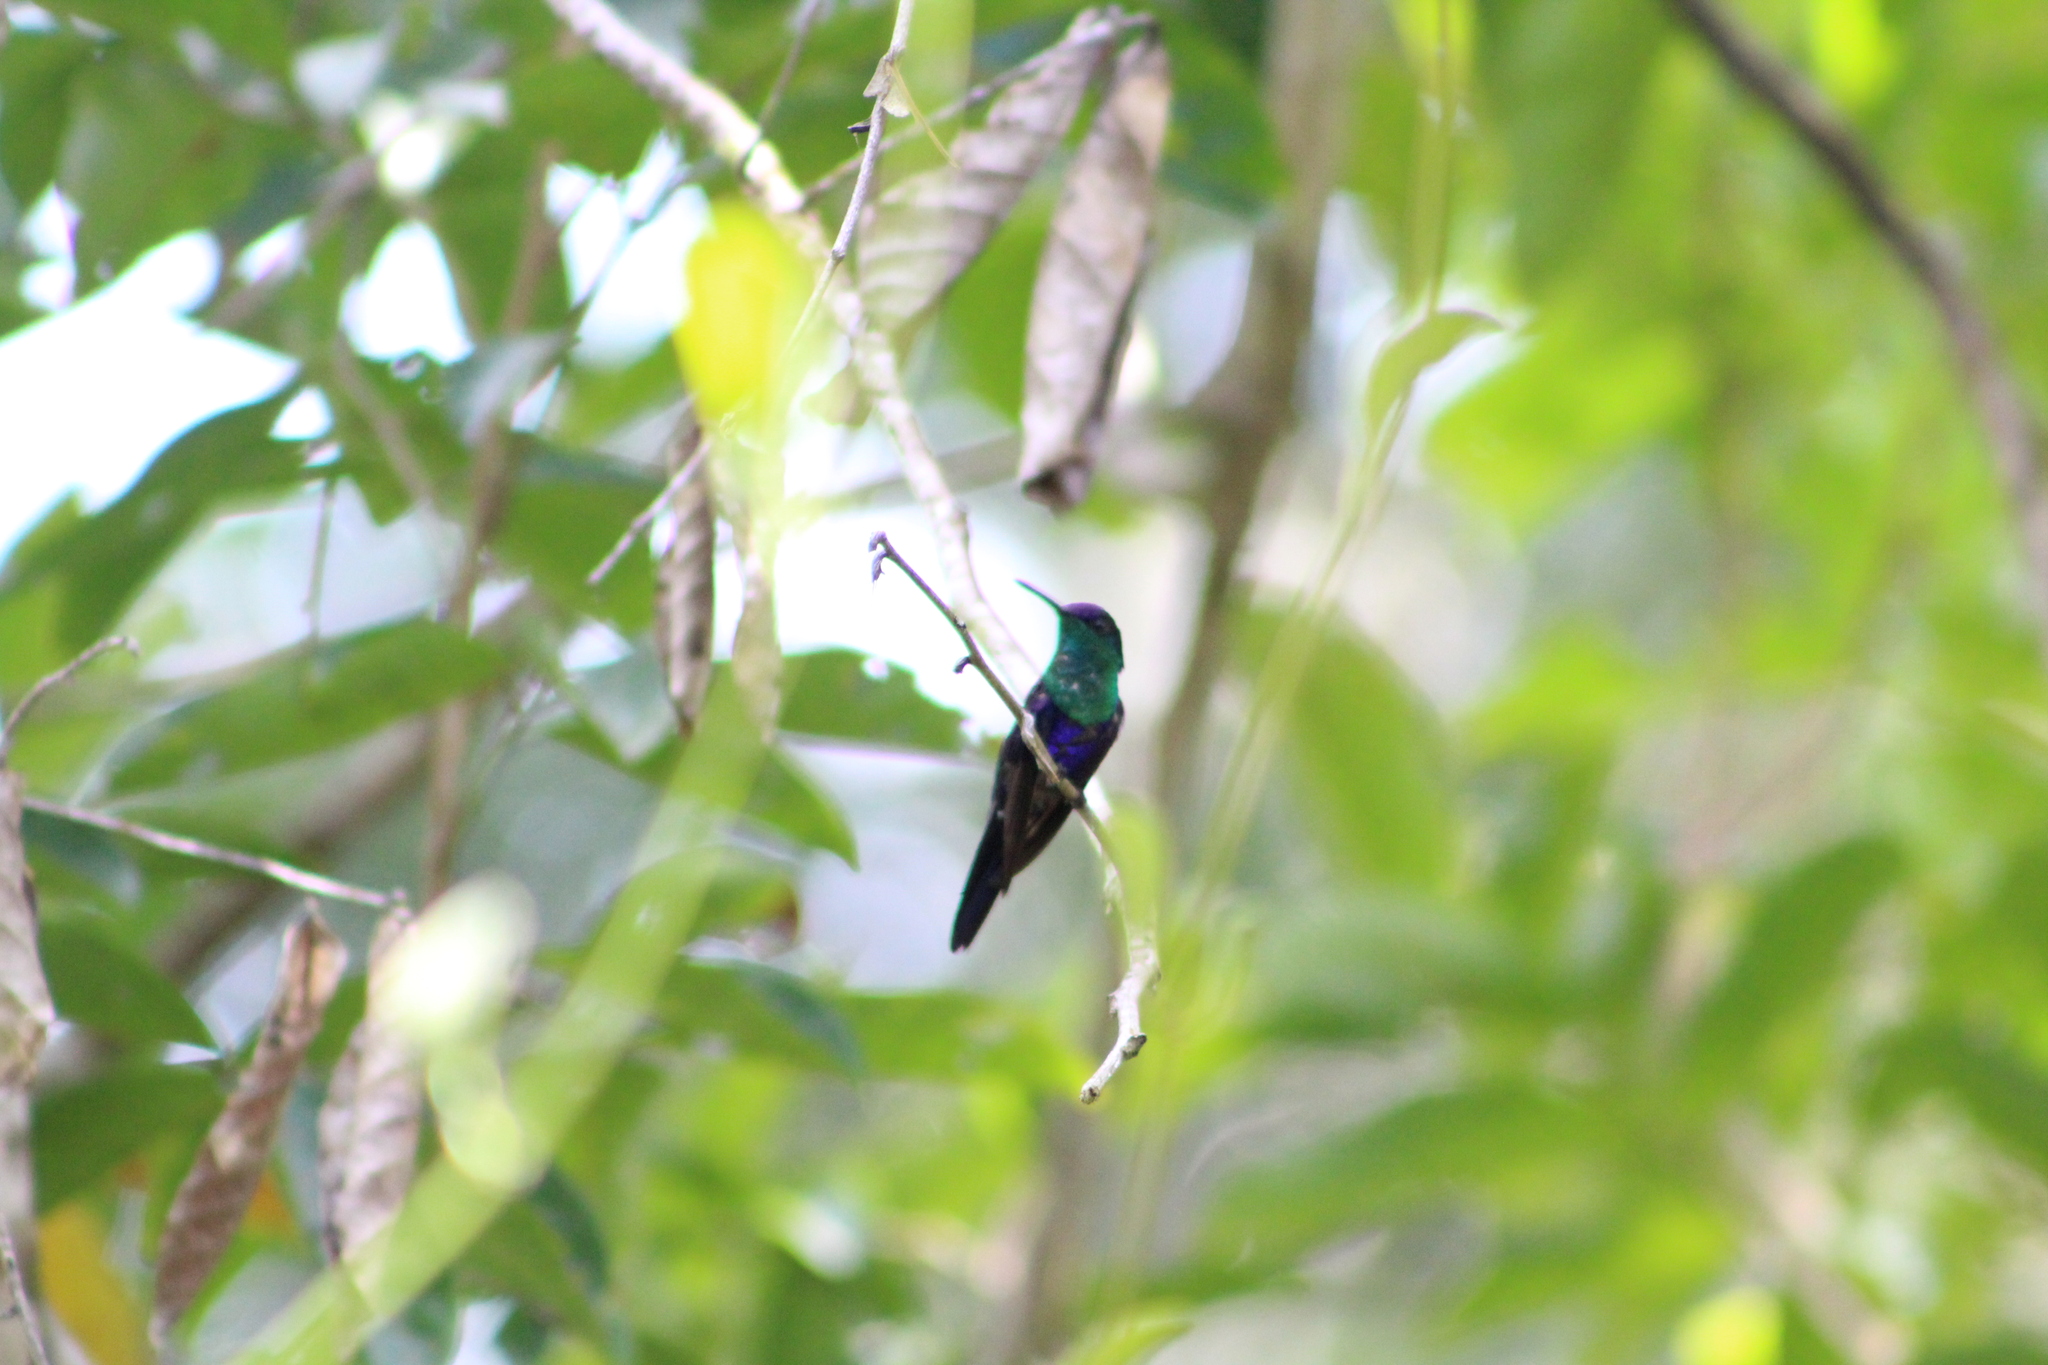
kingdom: Animalia
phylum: Chordata
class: Aves
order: Apodiformes
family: Trochilidae
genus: Thalurania
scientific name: Thalurania colombica
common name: Crowned woodnymph
